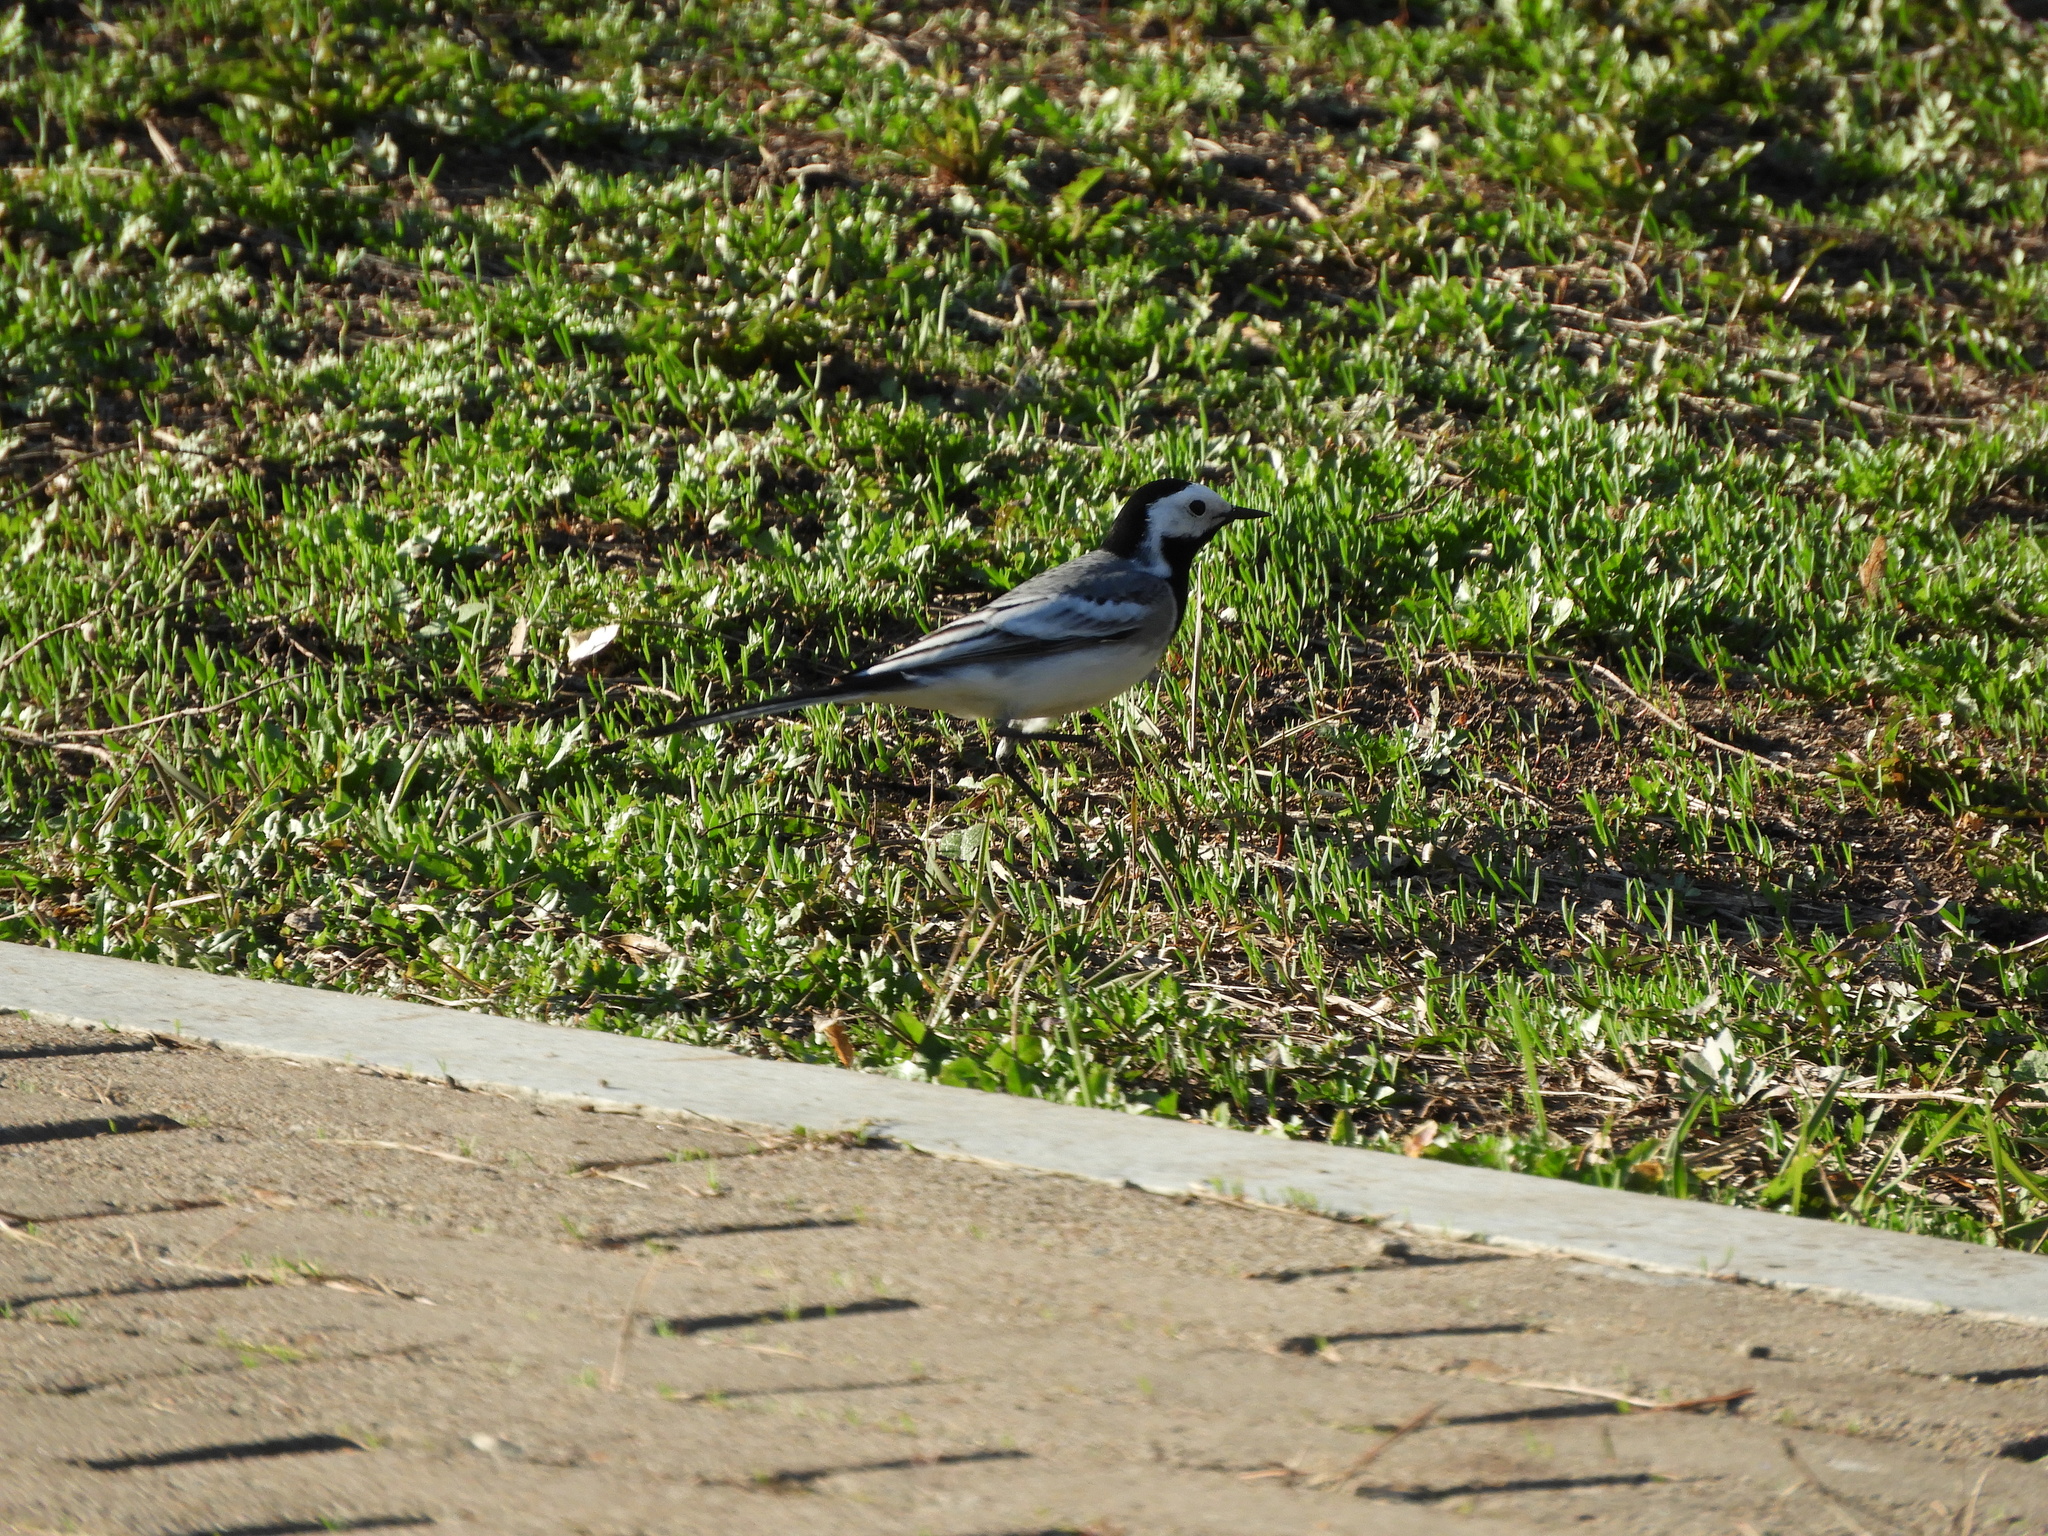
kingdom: Animalia
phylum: Chordata
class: Aves
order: Passeriformes
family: Motacillidae
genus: Motacilla
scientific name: Motacilla alba
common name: White wagtail
